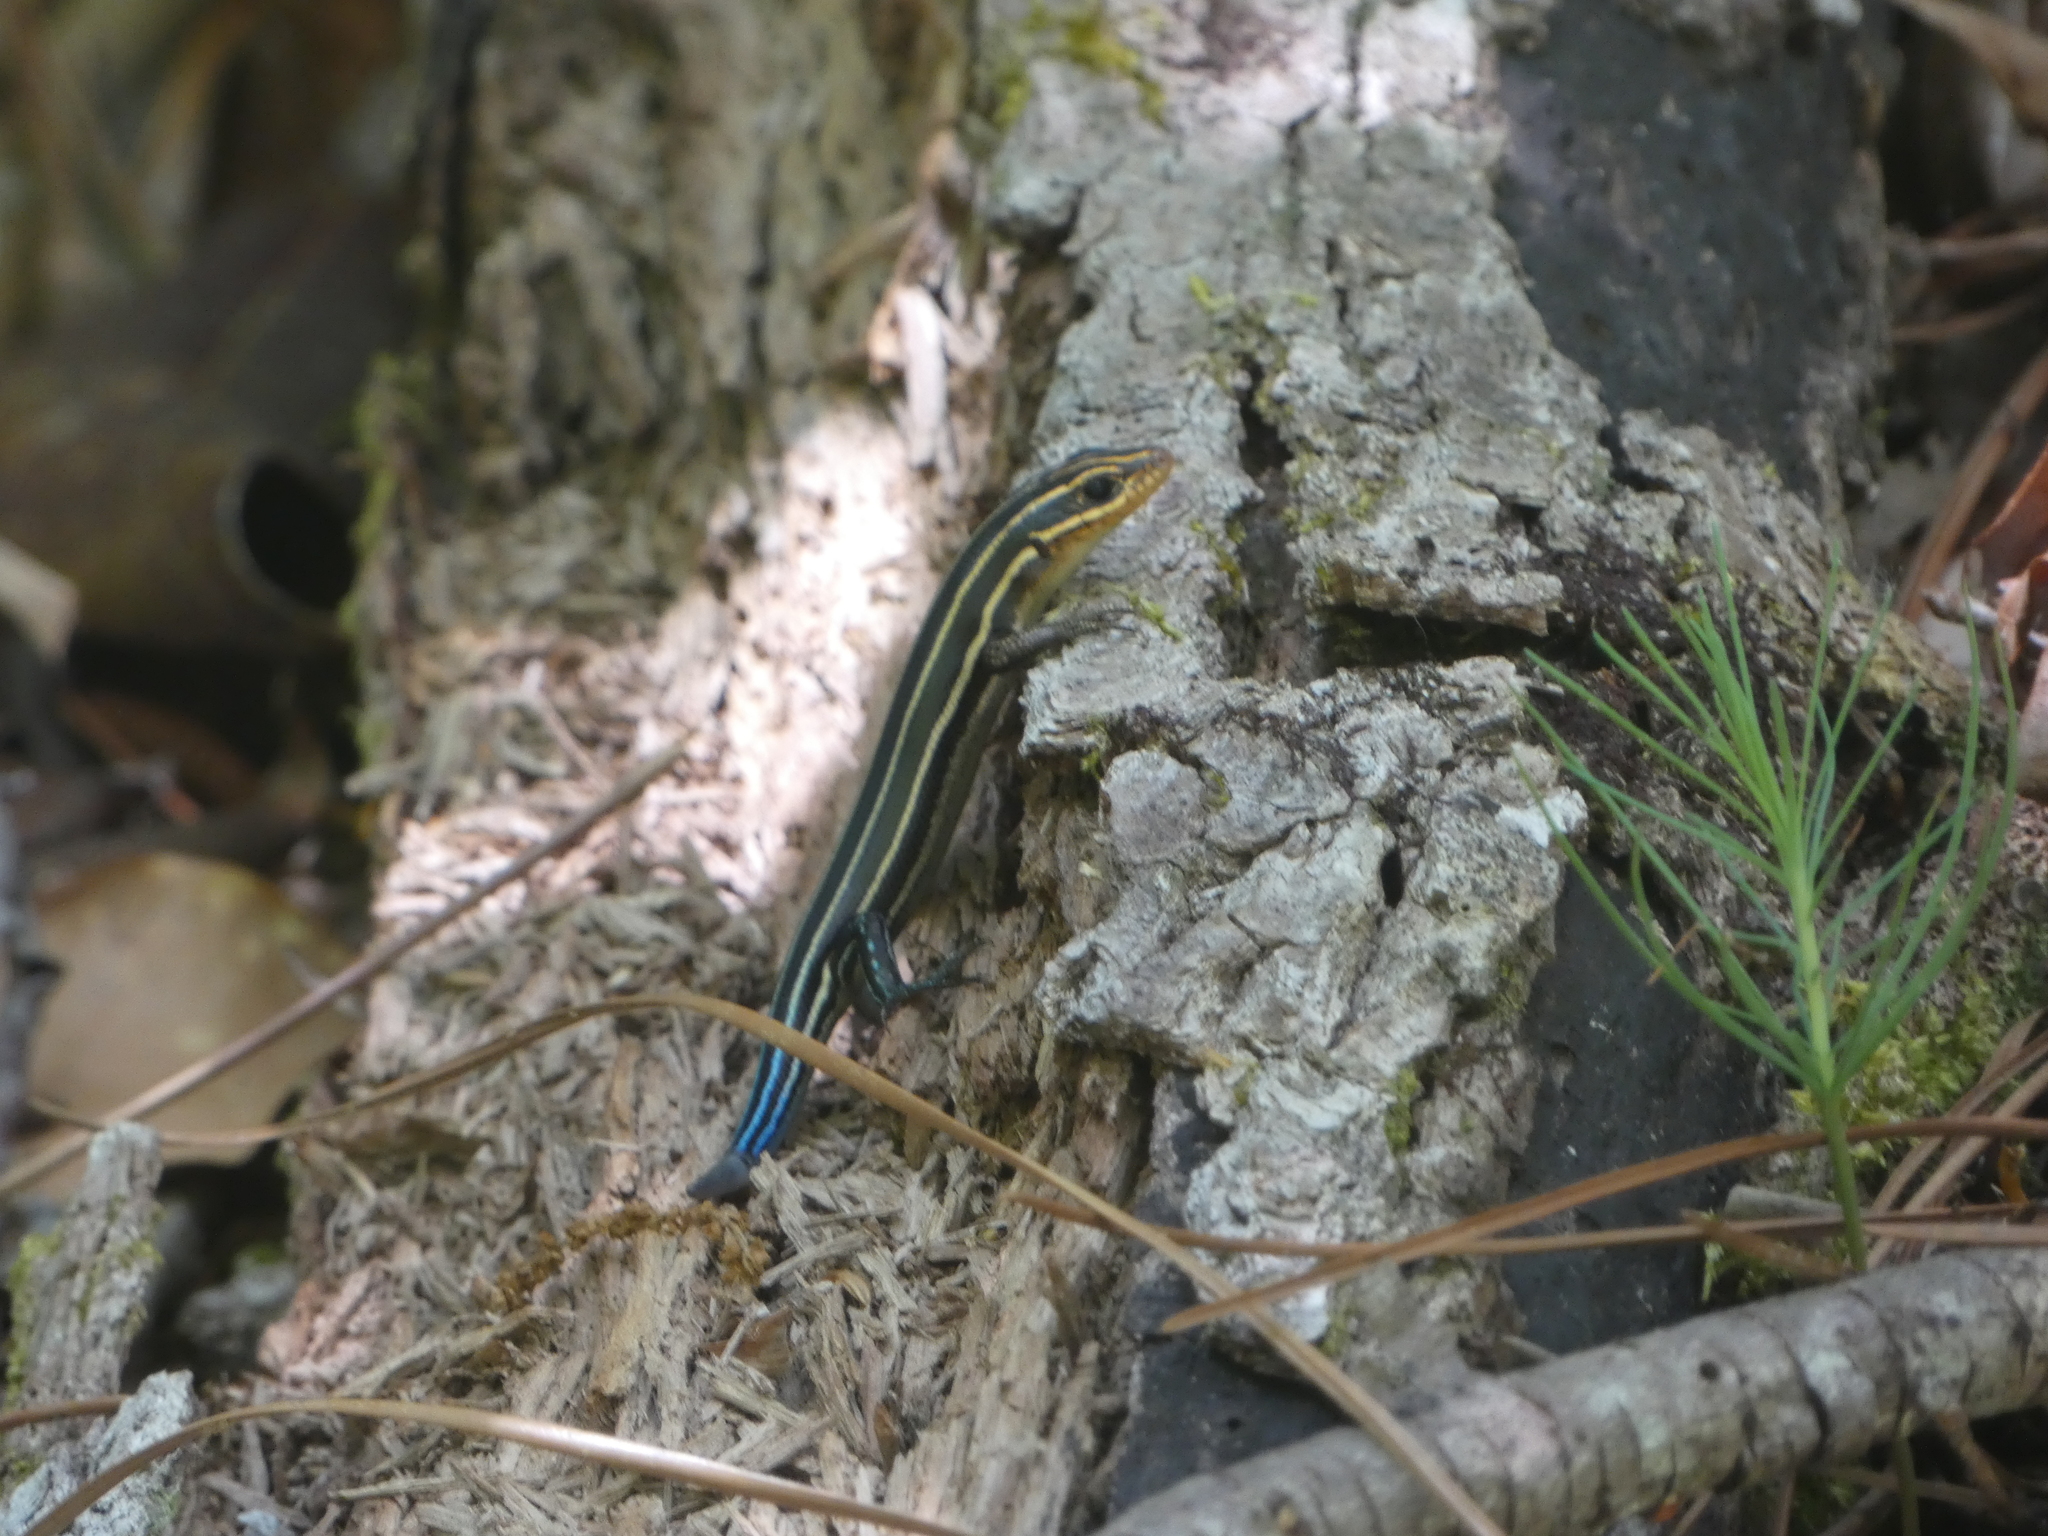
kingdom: Animalia
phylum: Chordata
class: Squamata
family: Scincidae
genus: Plestiodon
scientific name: Plestiodon laticeps
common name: Broadhead skink
